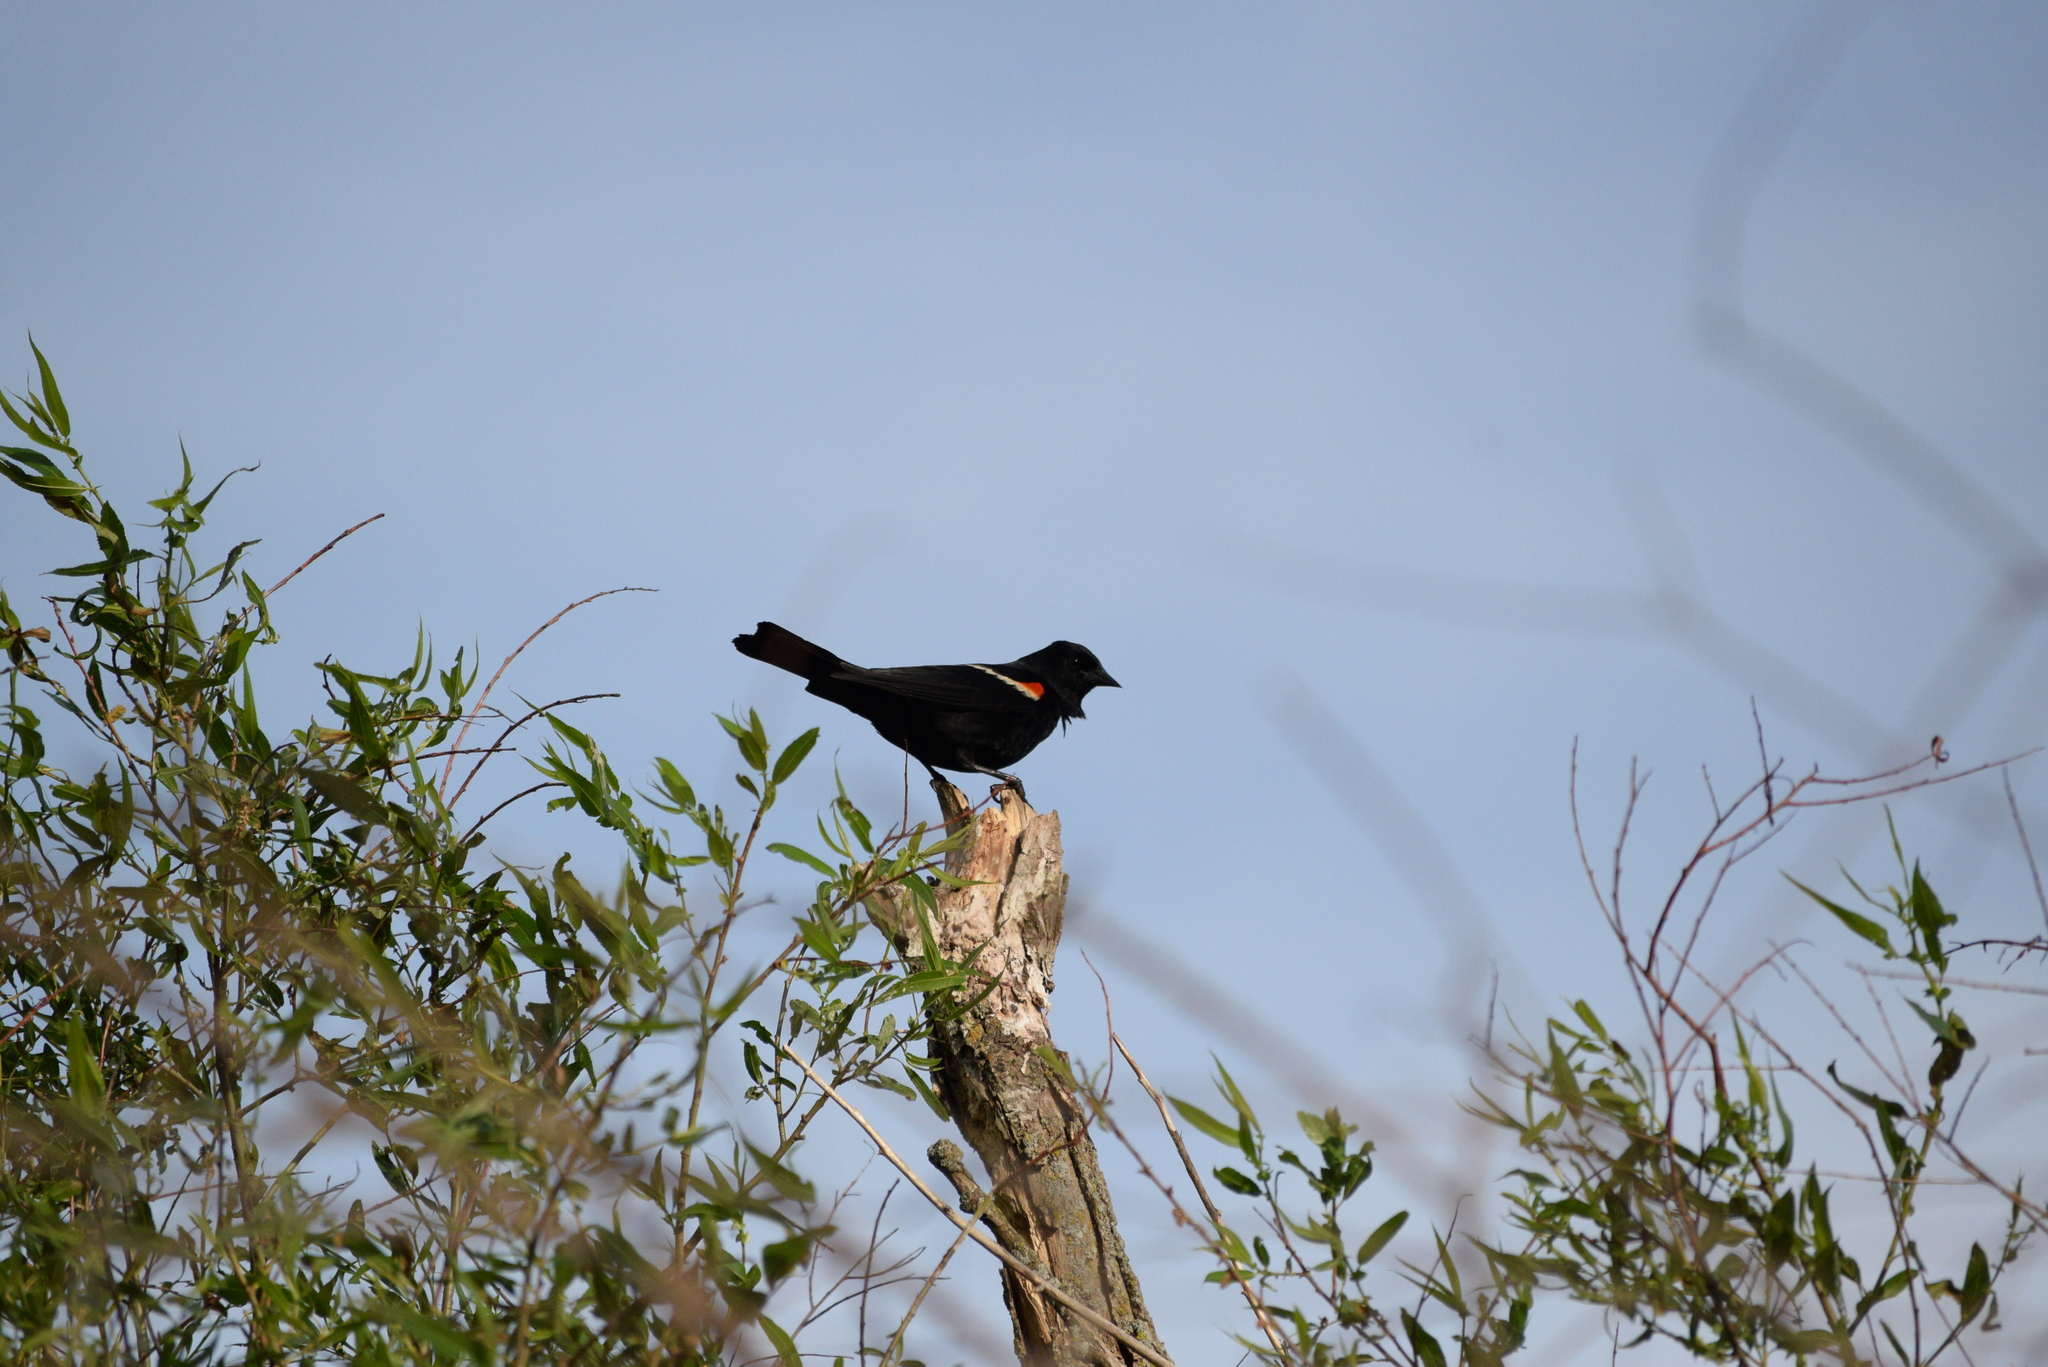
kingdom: Animalia
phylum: Chordata
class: Aves
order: Passeriformes
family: Icteridae
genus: Agelaius
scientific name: Agelaius phoeniceus
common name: Red-winged blackbird
